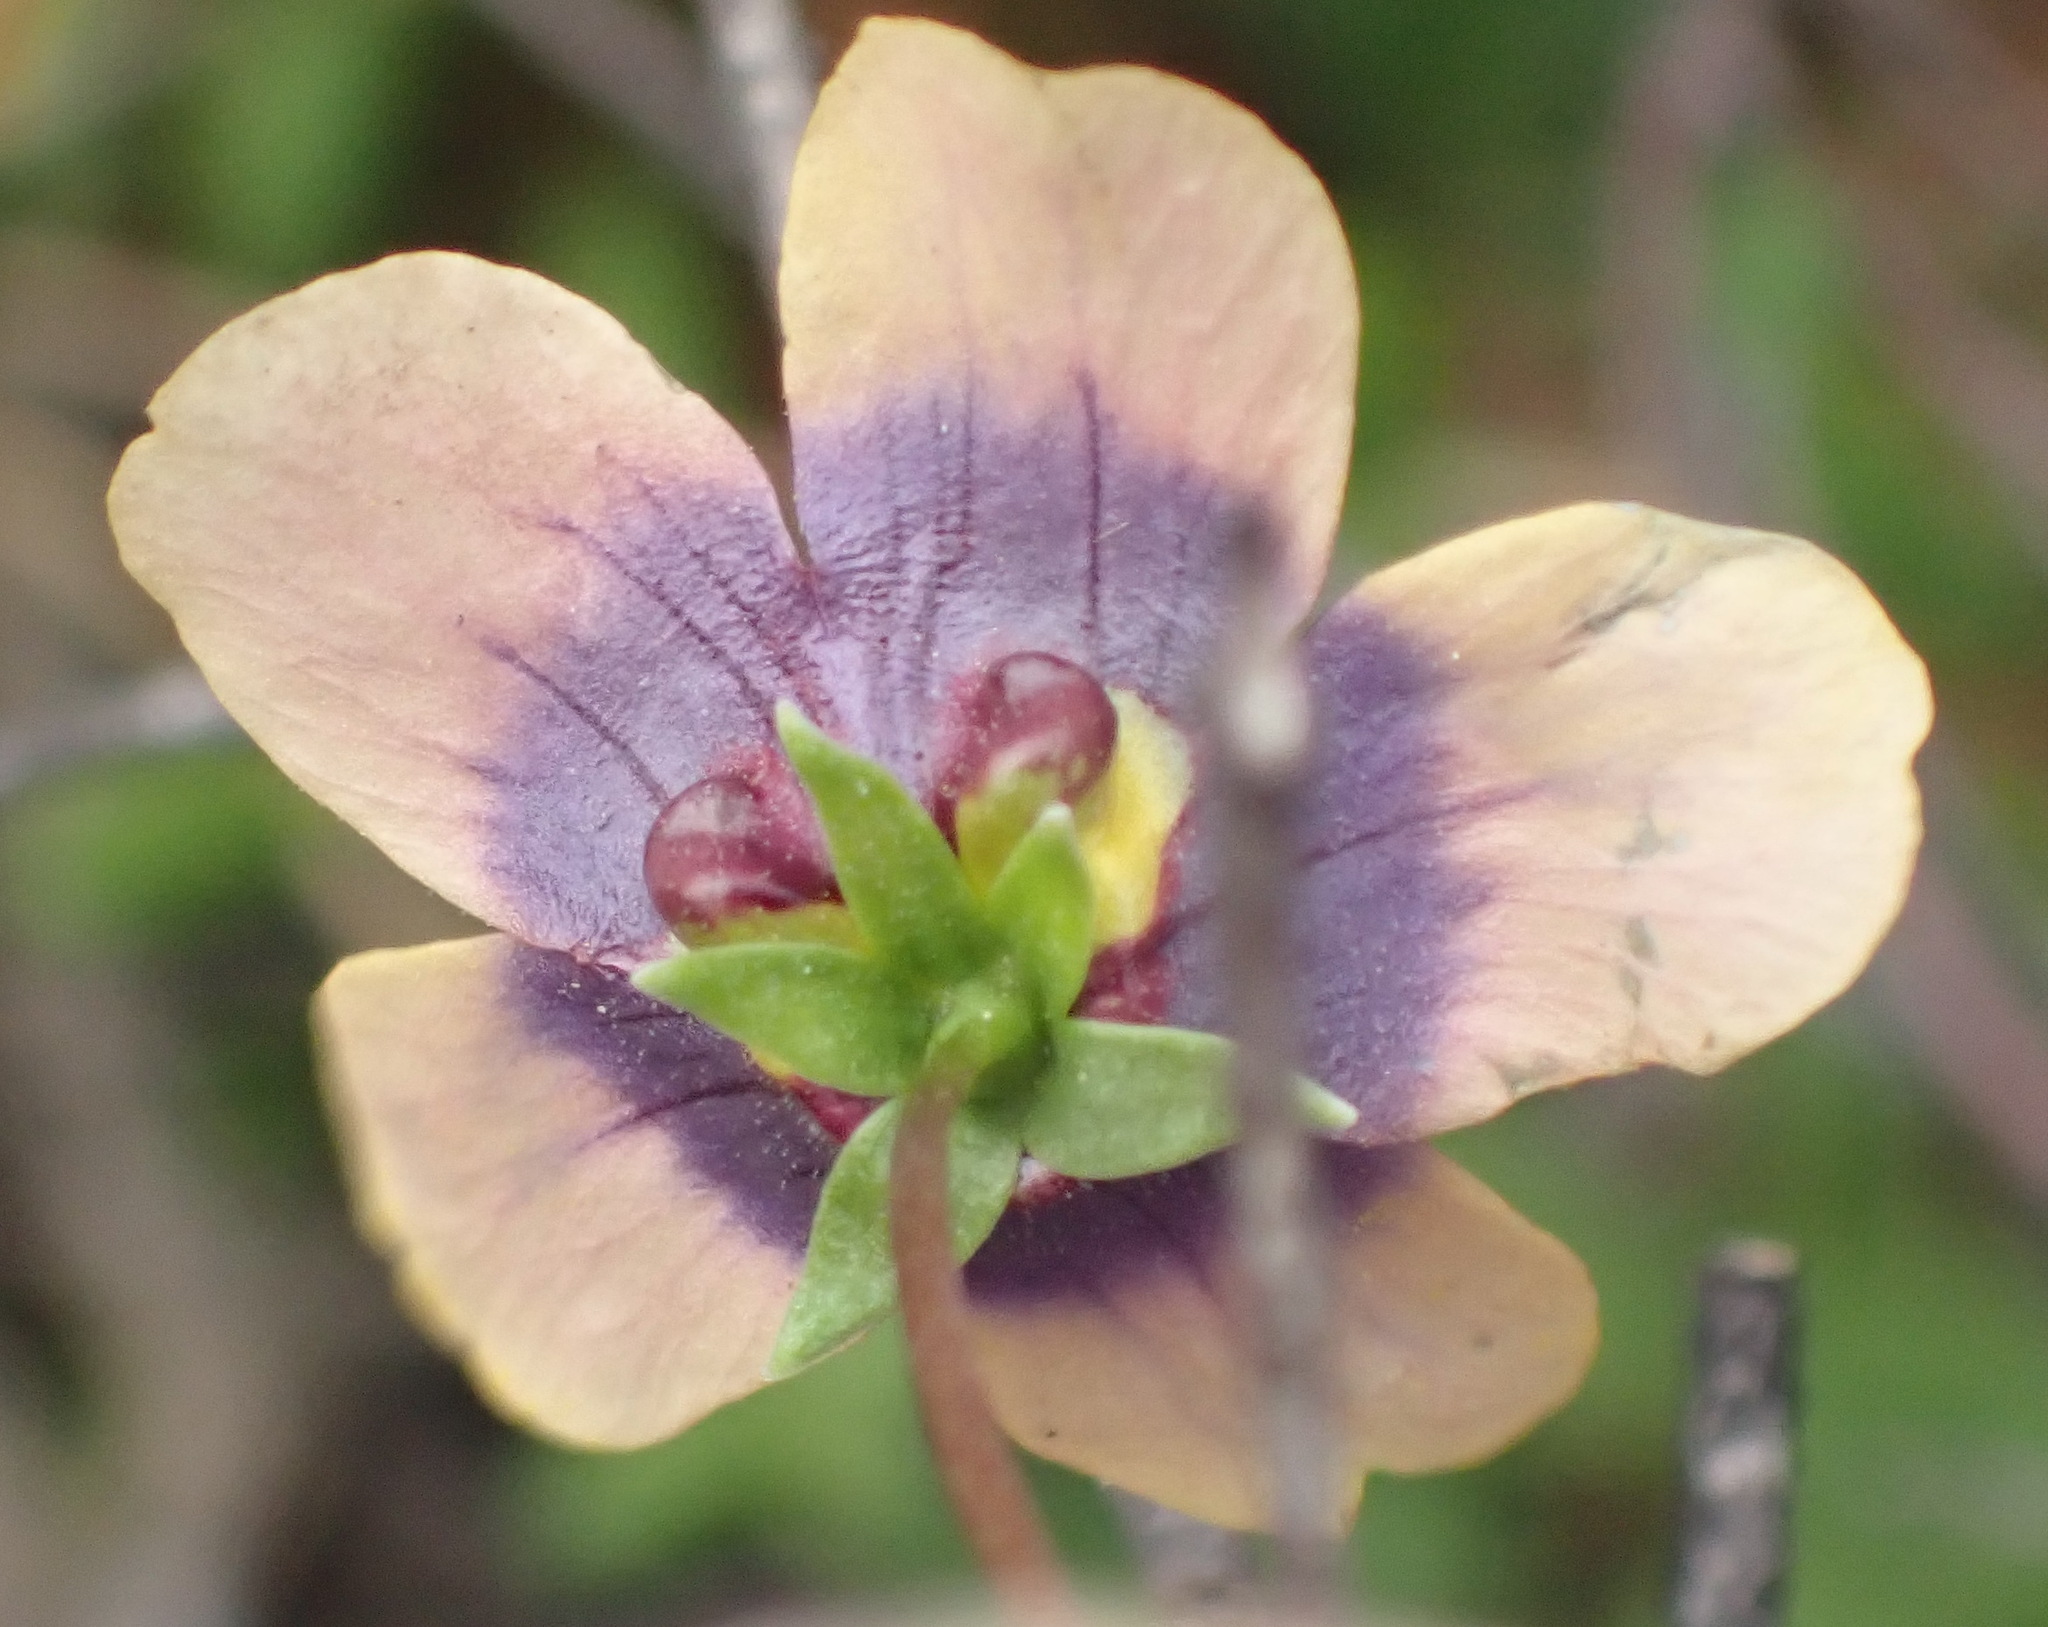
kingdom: Plantae
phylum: Tracheophyta
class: Magnoliopsida
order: Lamiales
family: Scrophulariaceae
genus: Diascia
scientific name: Diascia bicolor
